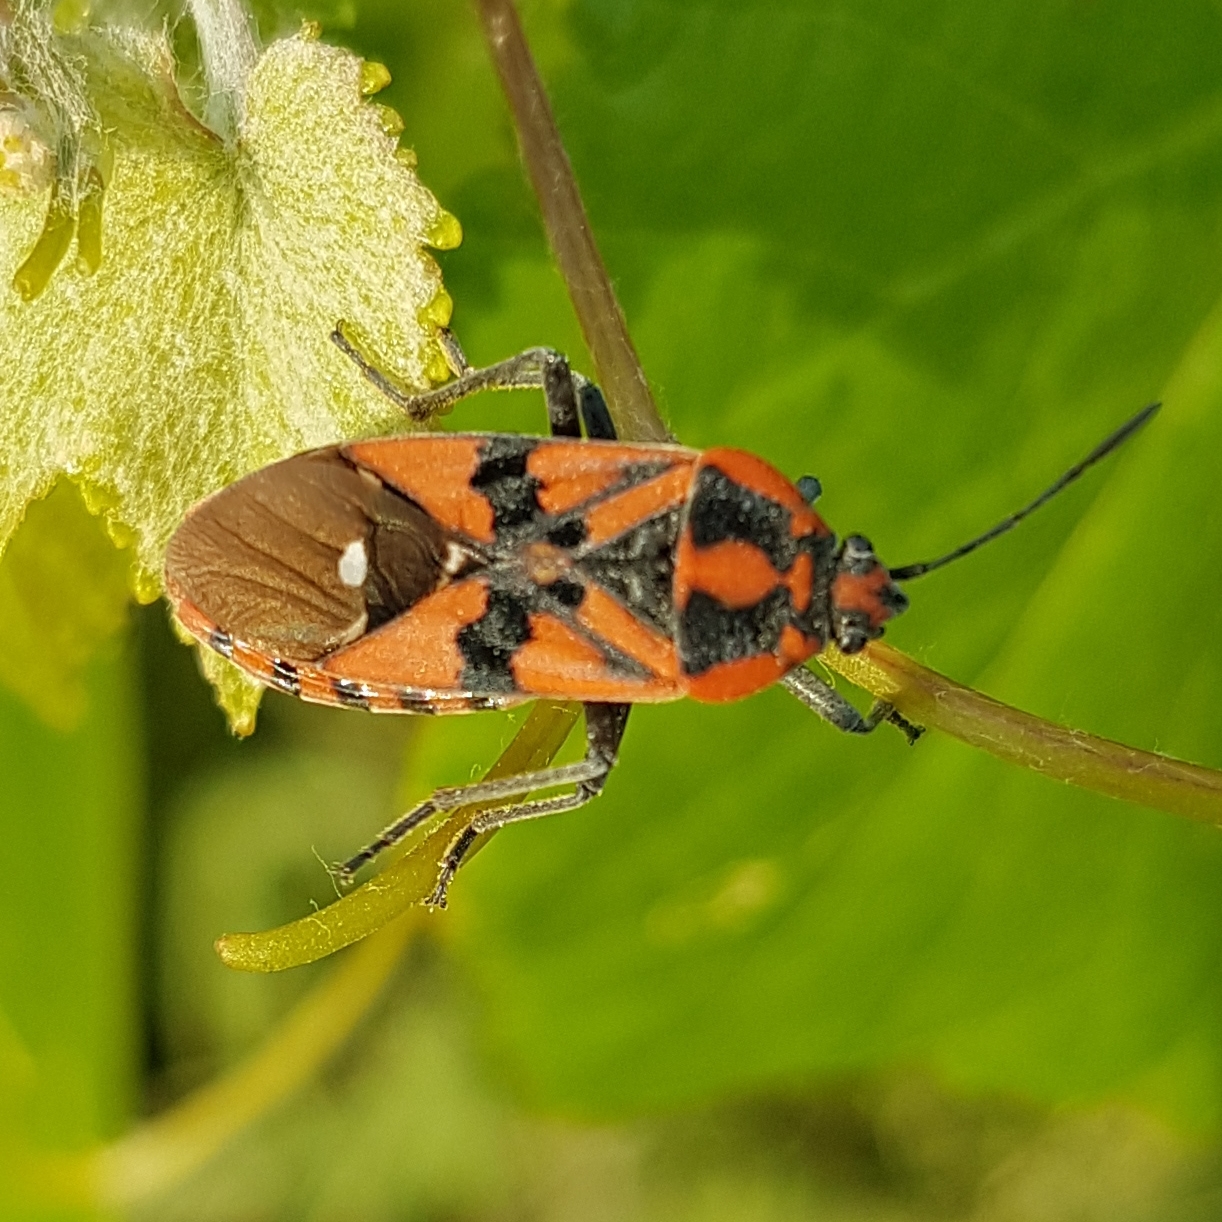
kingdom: Animalia
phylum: Arthropoda
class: Insecta
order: Hemiptera
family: Lygaeidae
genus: Spilostethus
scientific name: Spilostethus pandurus
